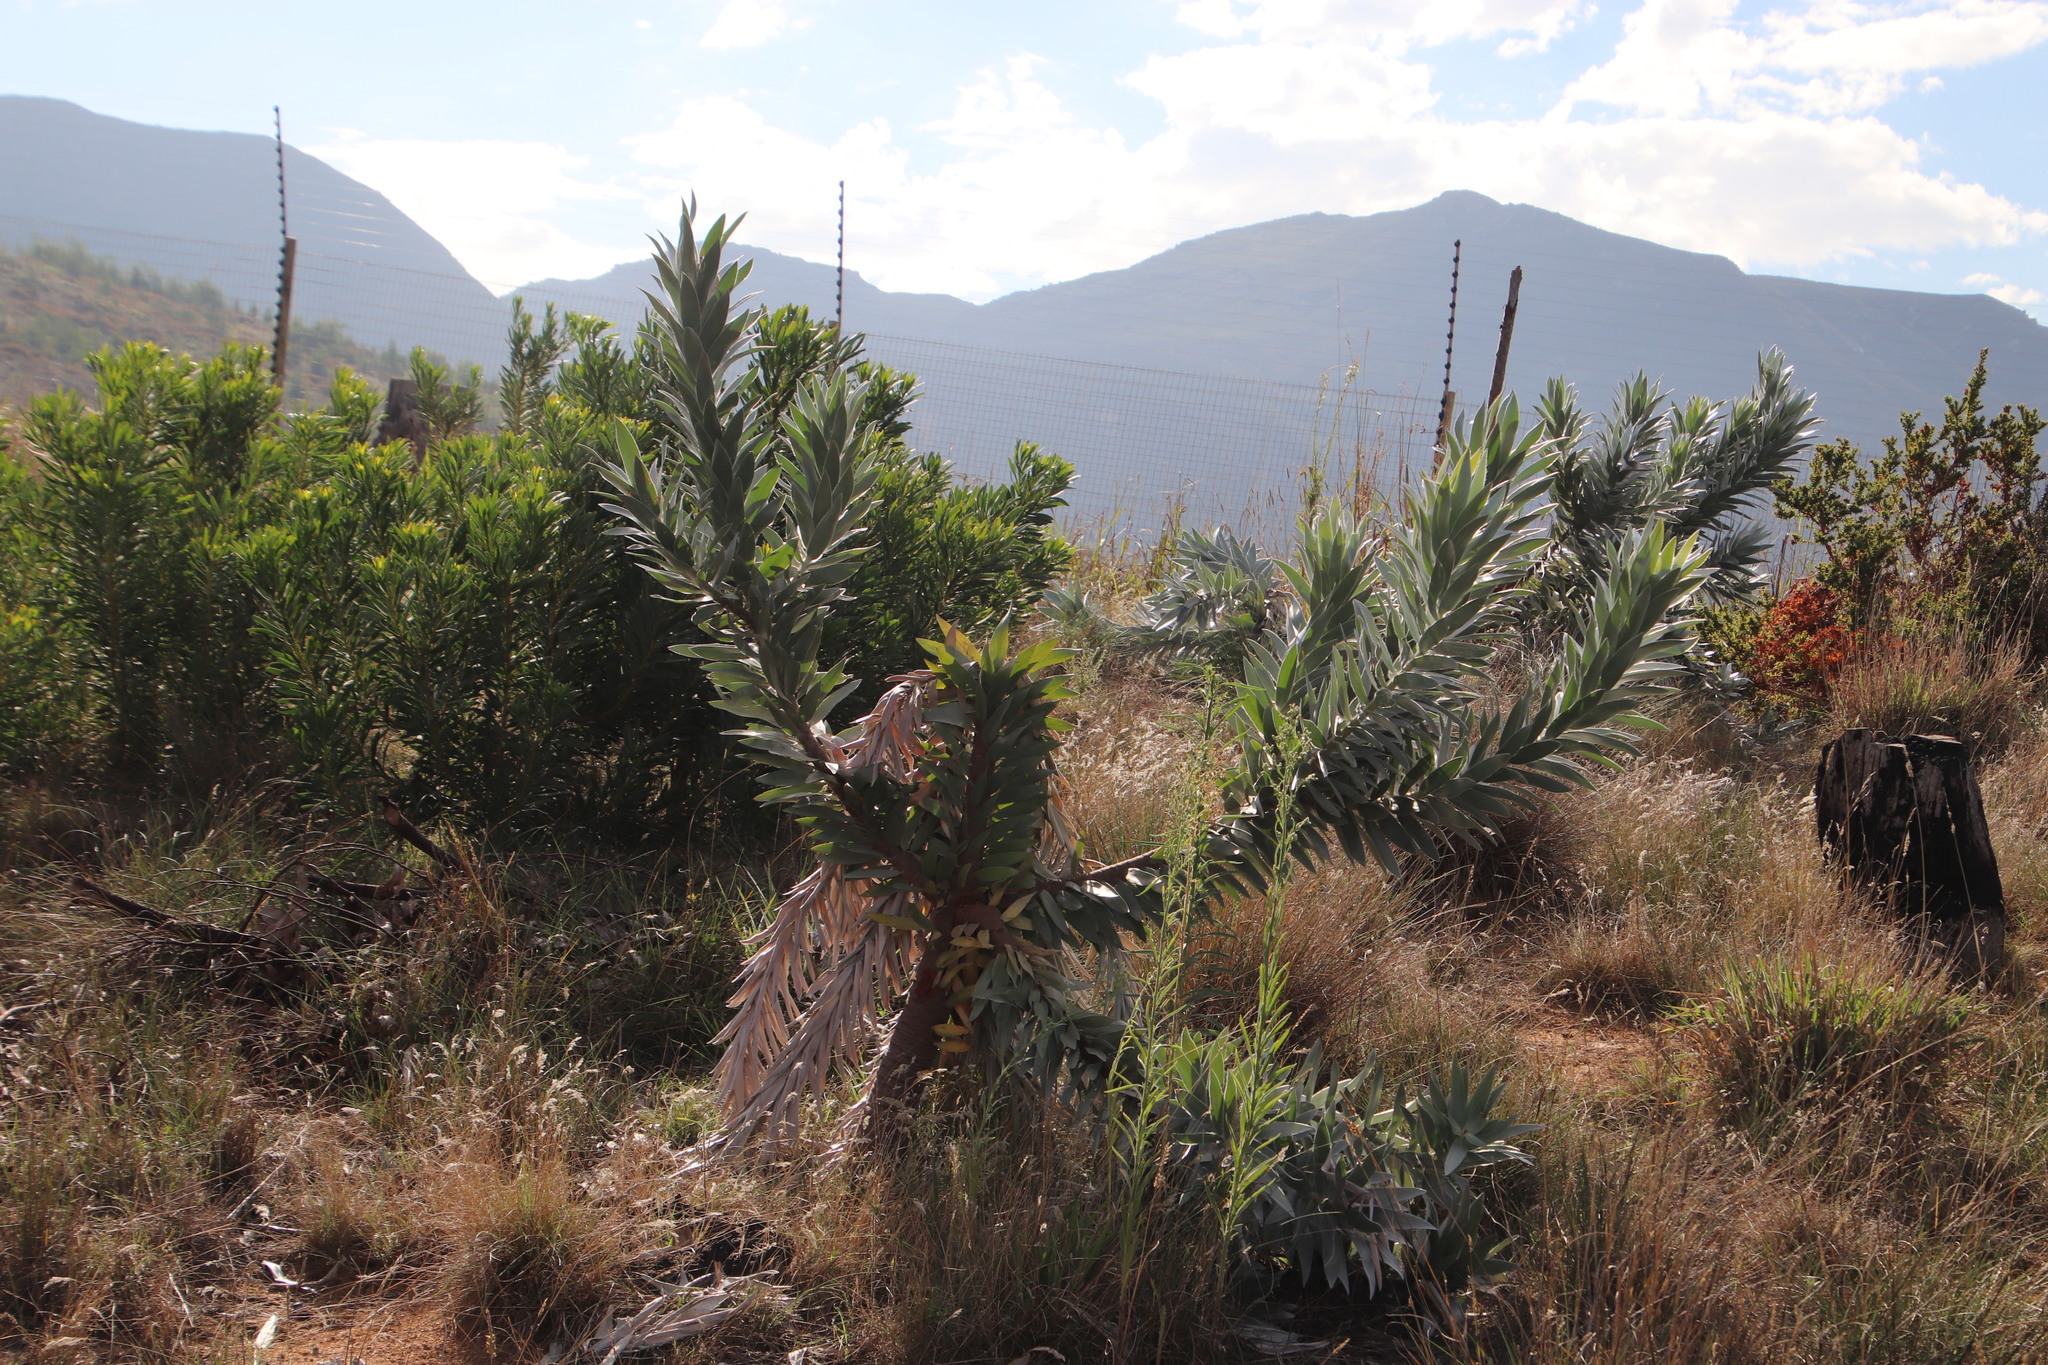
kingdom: Plantae
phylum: Tracheophyta
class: Magnoliopsida
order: Proteales
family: Proteaceae
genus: Leucadendron
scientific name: Leucadendron argenteum
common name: Cape silver tree
